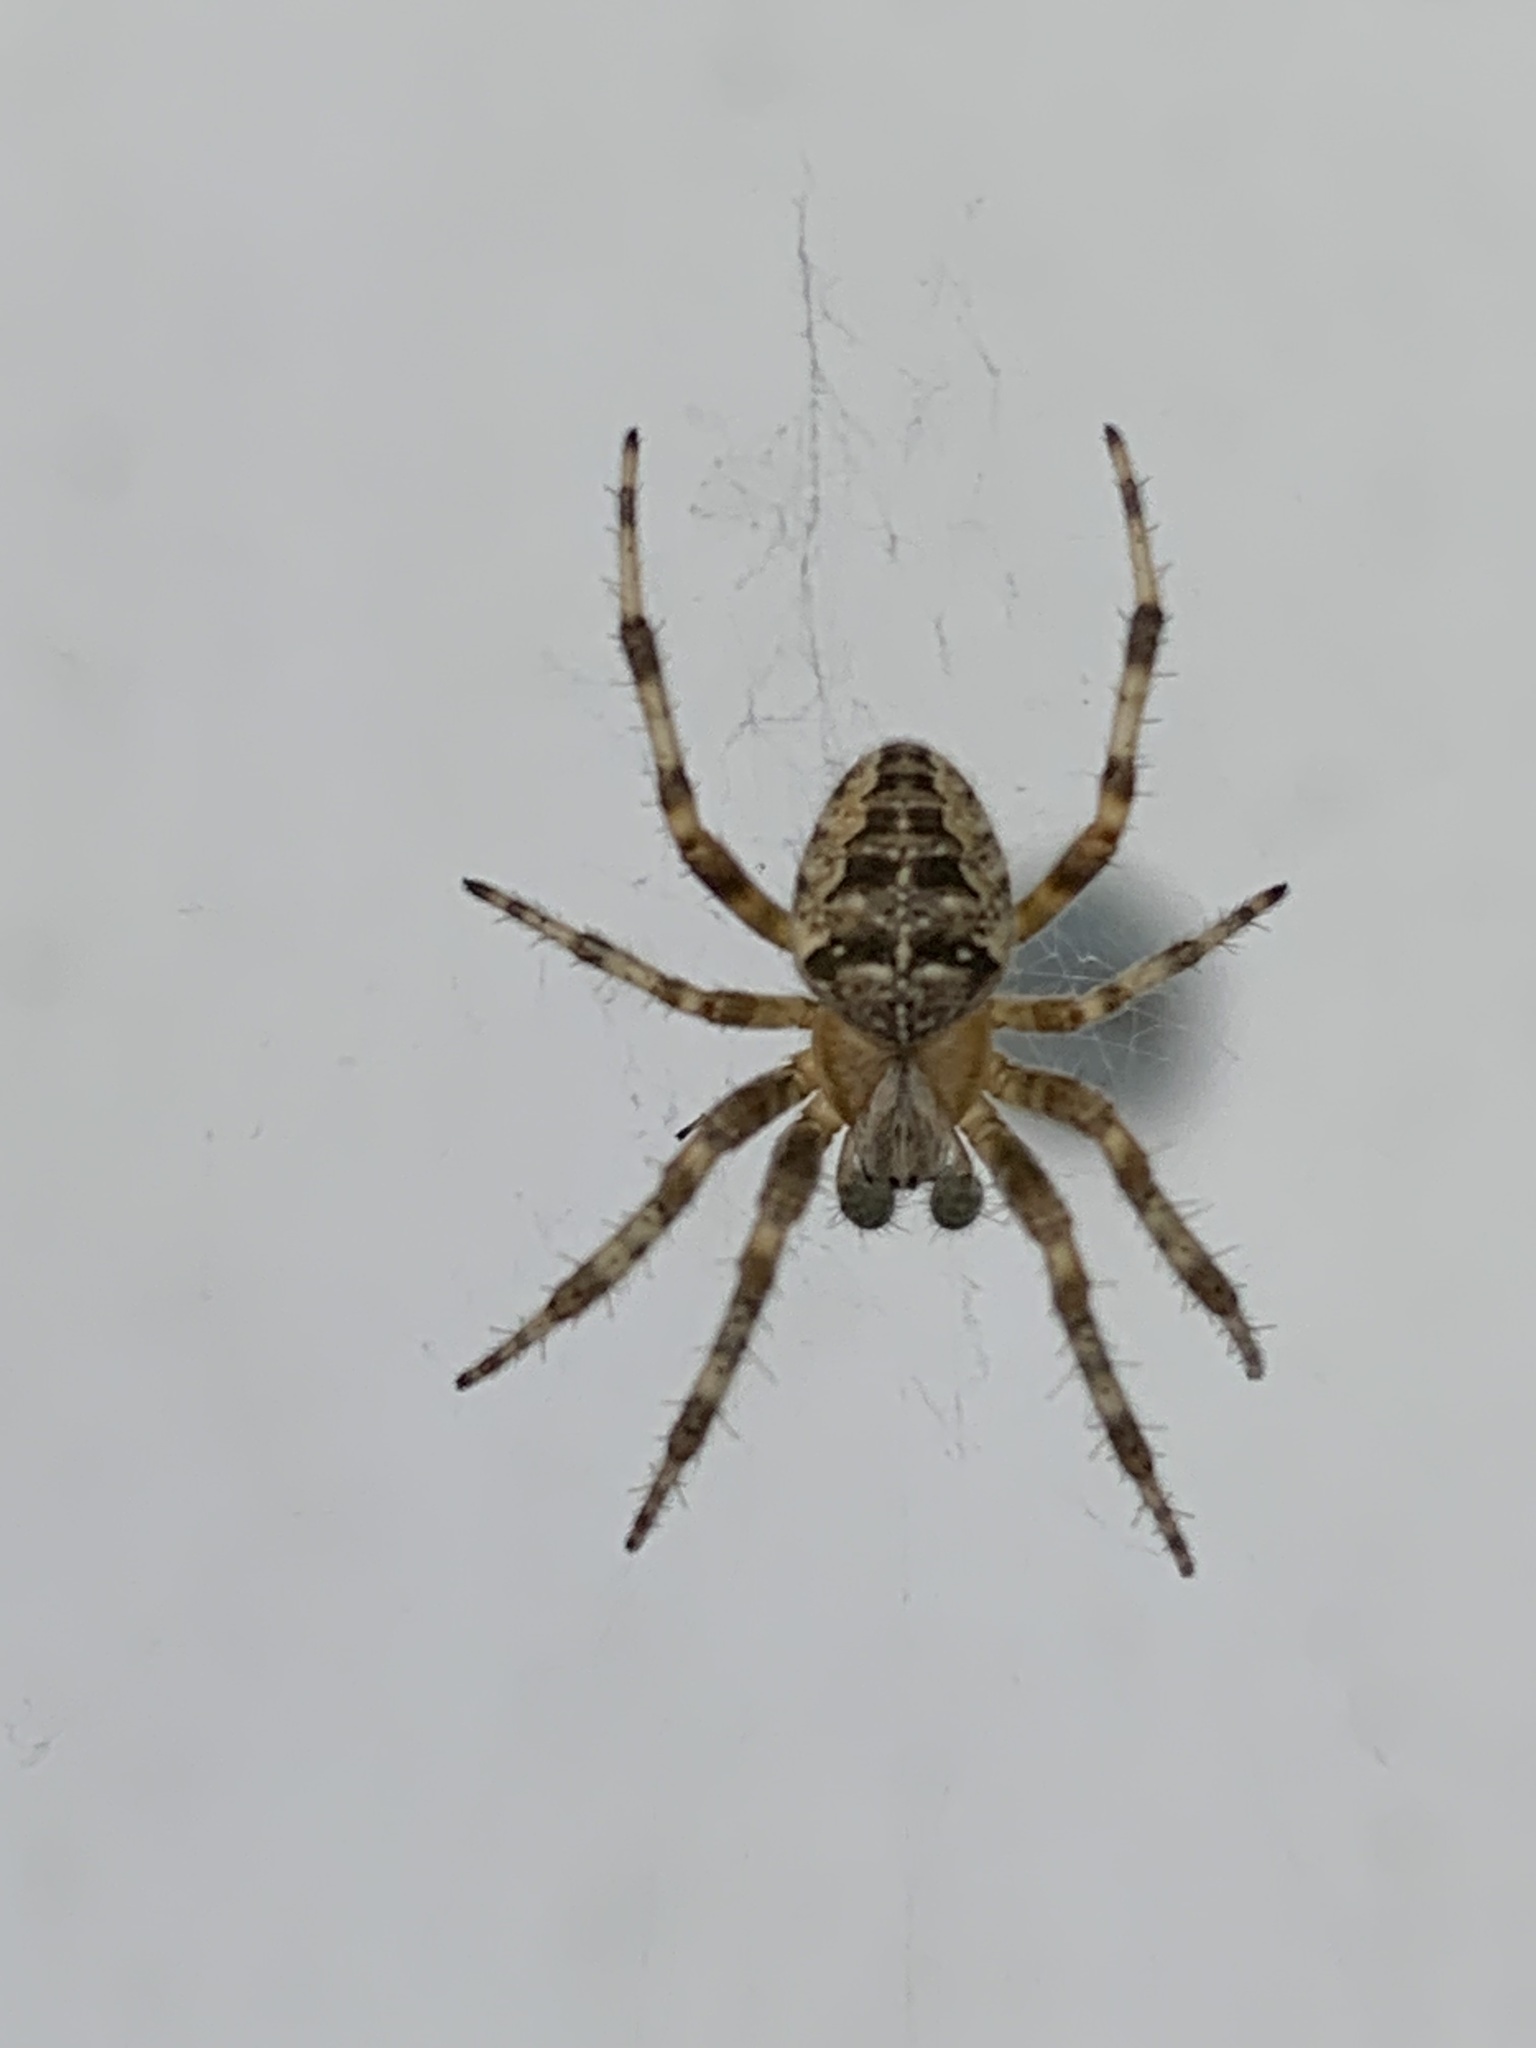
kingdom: Animalia
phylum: Arthropoda
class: Arachnida
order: Araneae
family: Araneidae
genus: Araneus
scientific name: Araneus diadematus
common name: Cross orbweaver
